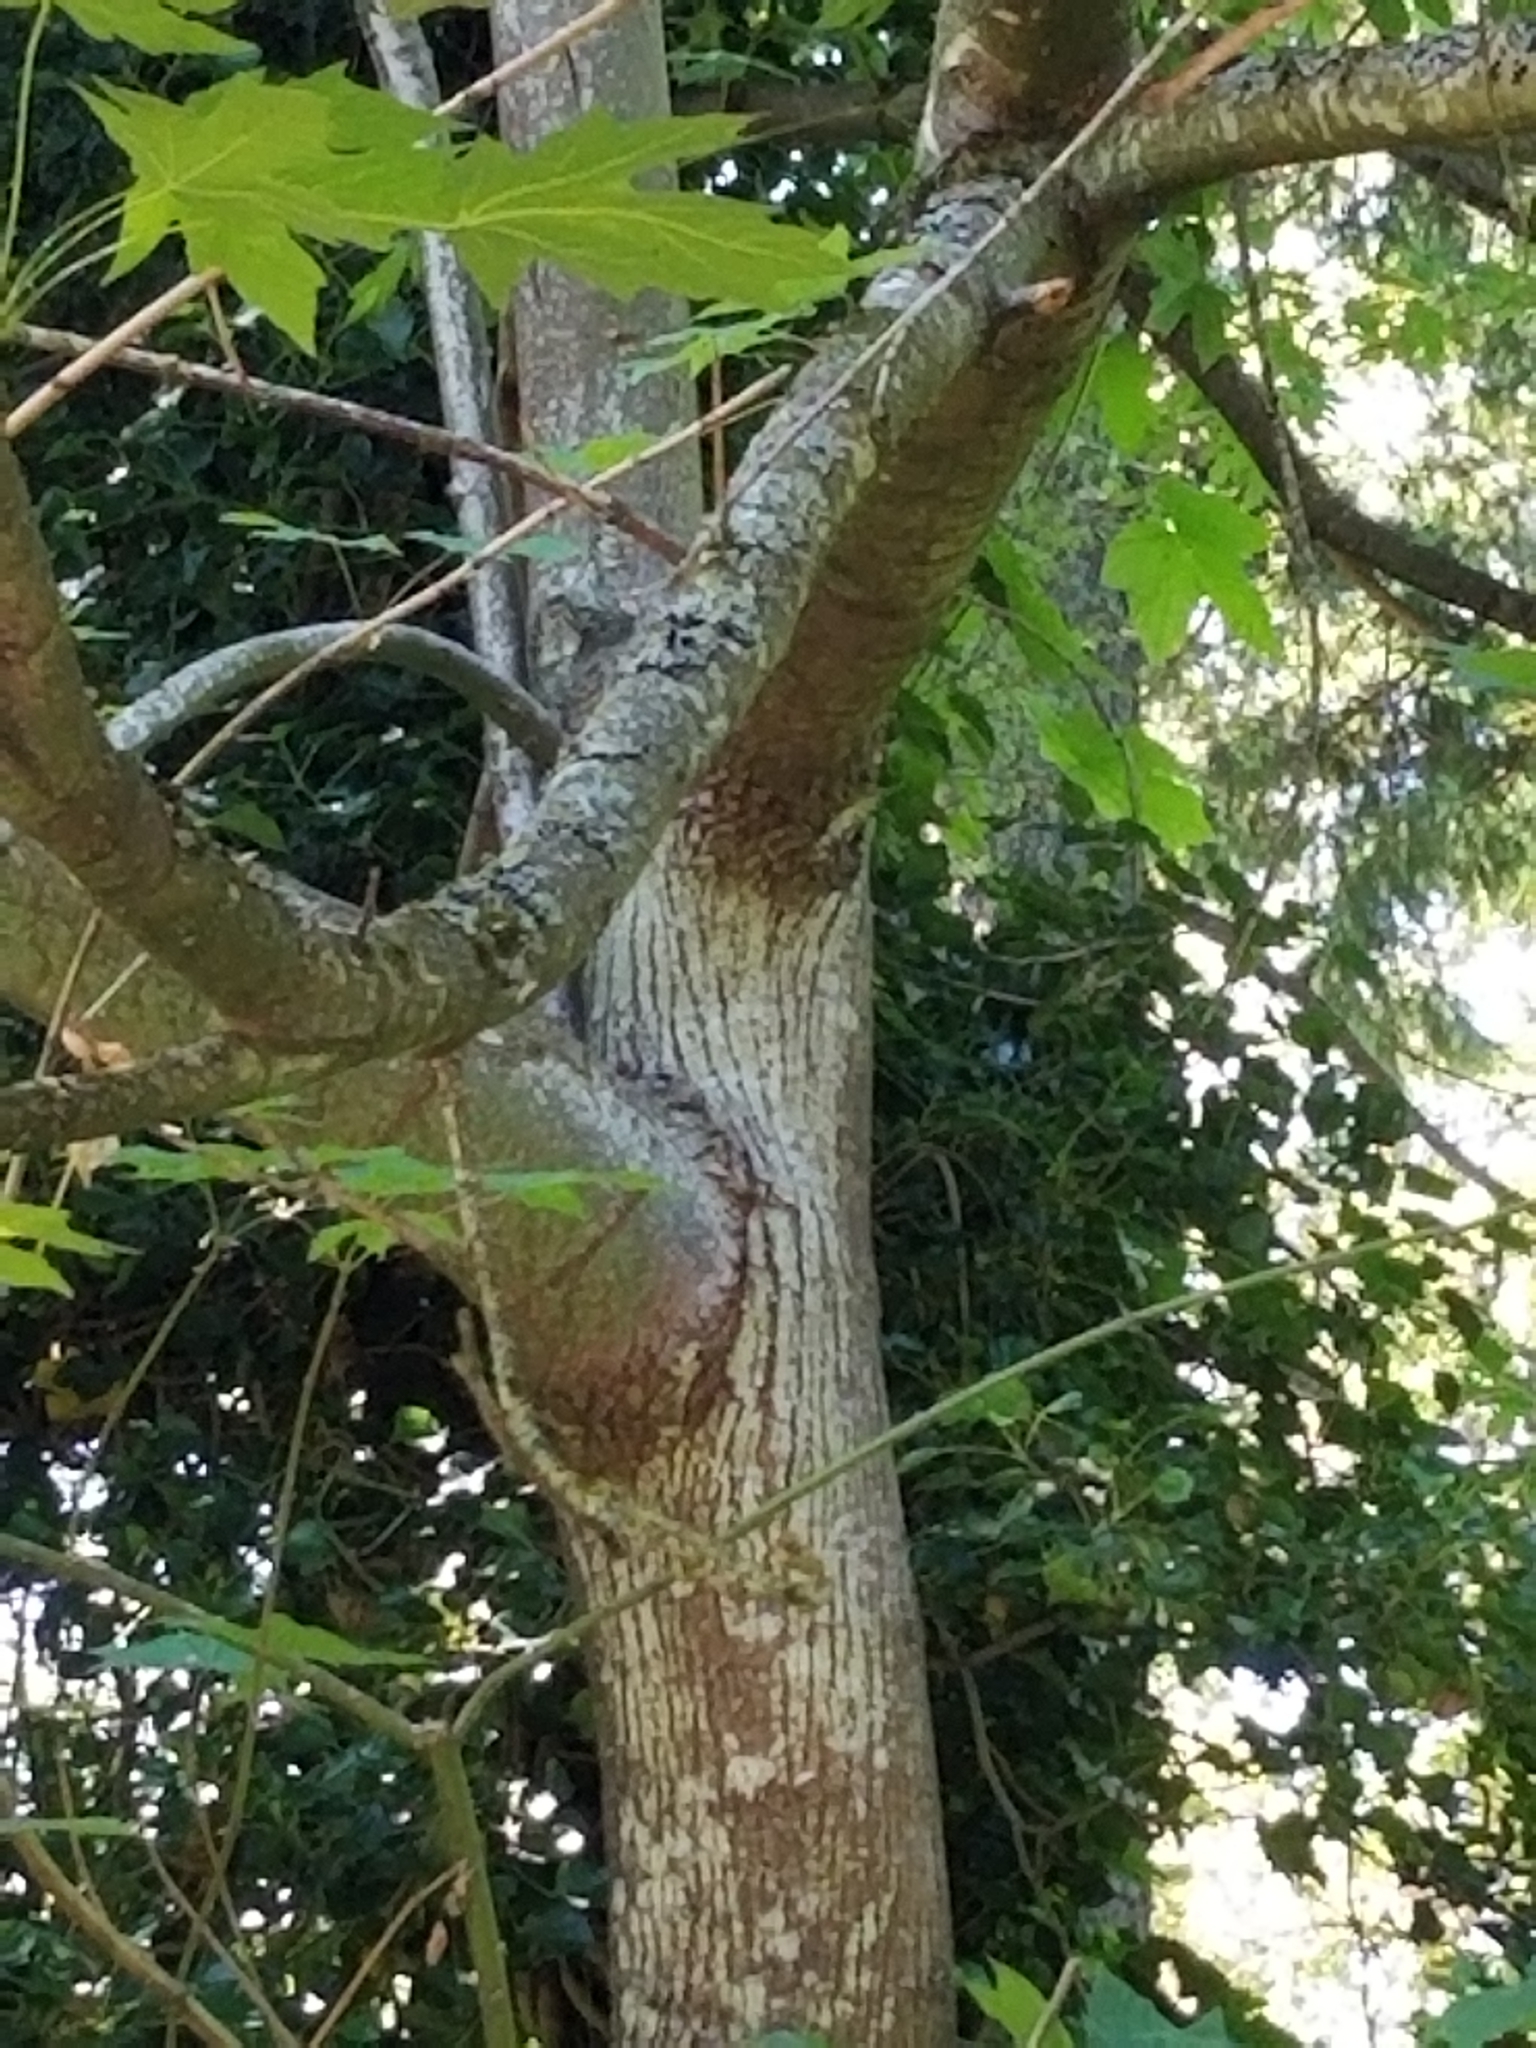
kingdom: Plantae
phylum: Tracheophyta
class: Magnoliopsida
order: Sapindales
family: Sapindaceae
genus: Acer
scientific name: Acer macrophyllum
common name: Oregon maple
